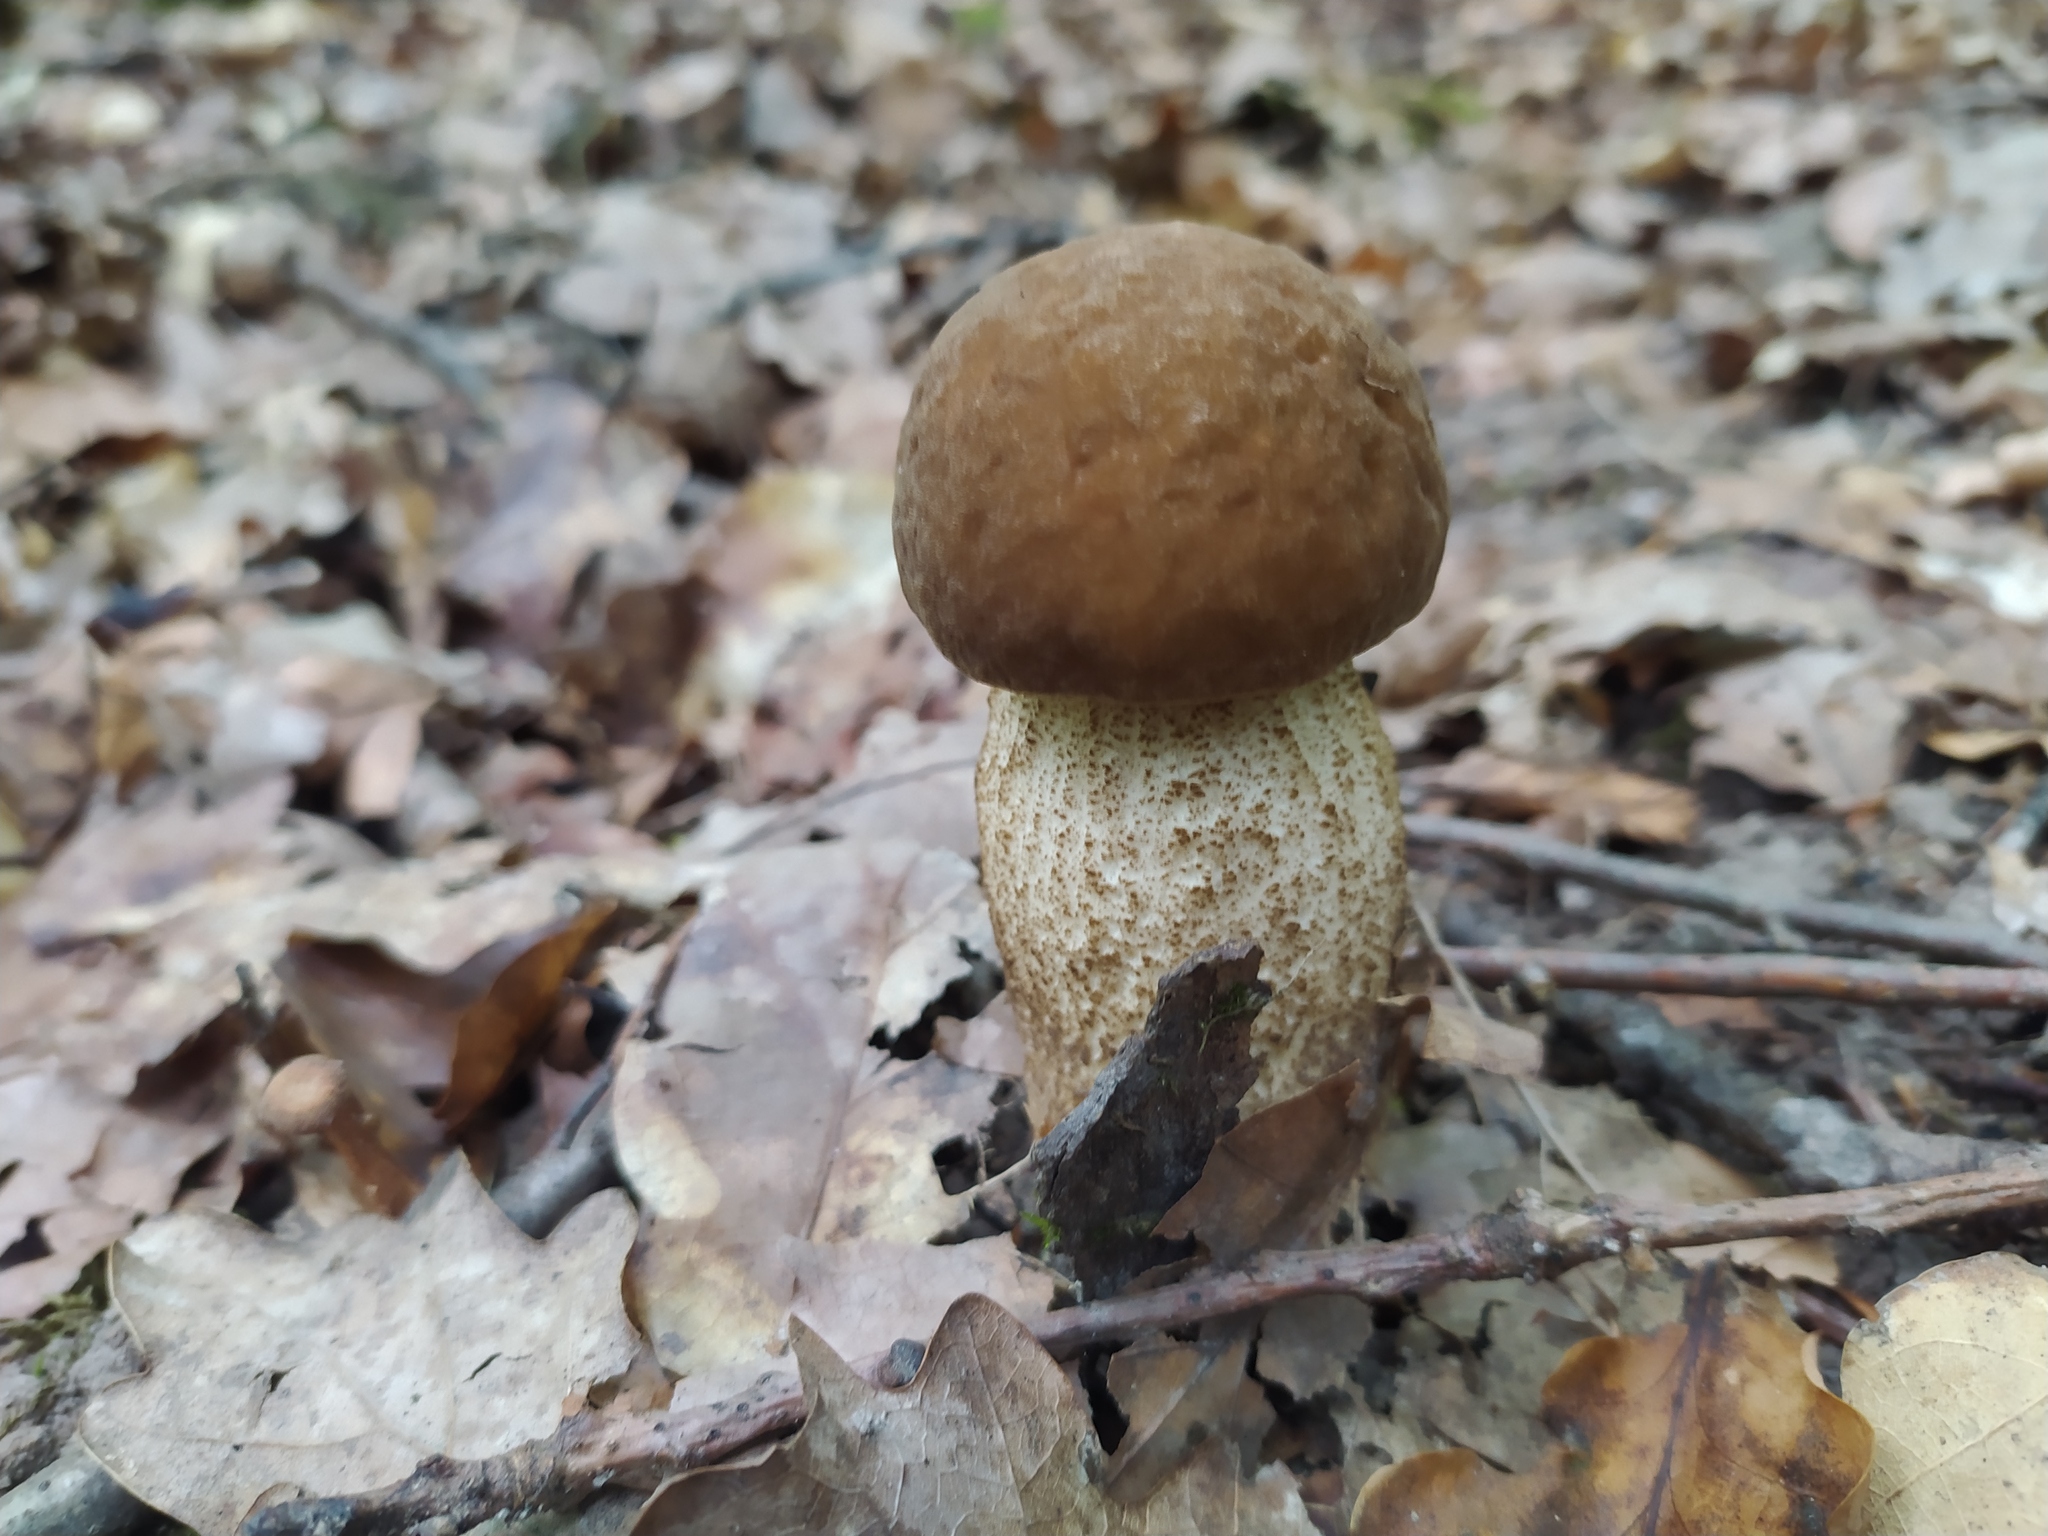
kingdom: Fungi
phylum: Basidiomycota
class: Agaricomycetes
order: Boletales
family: Boletaceae
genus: Leccinellum
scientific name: Leccinellum pseudoscabrum
